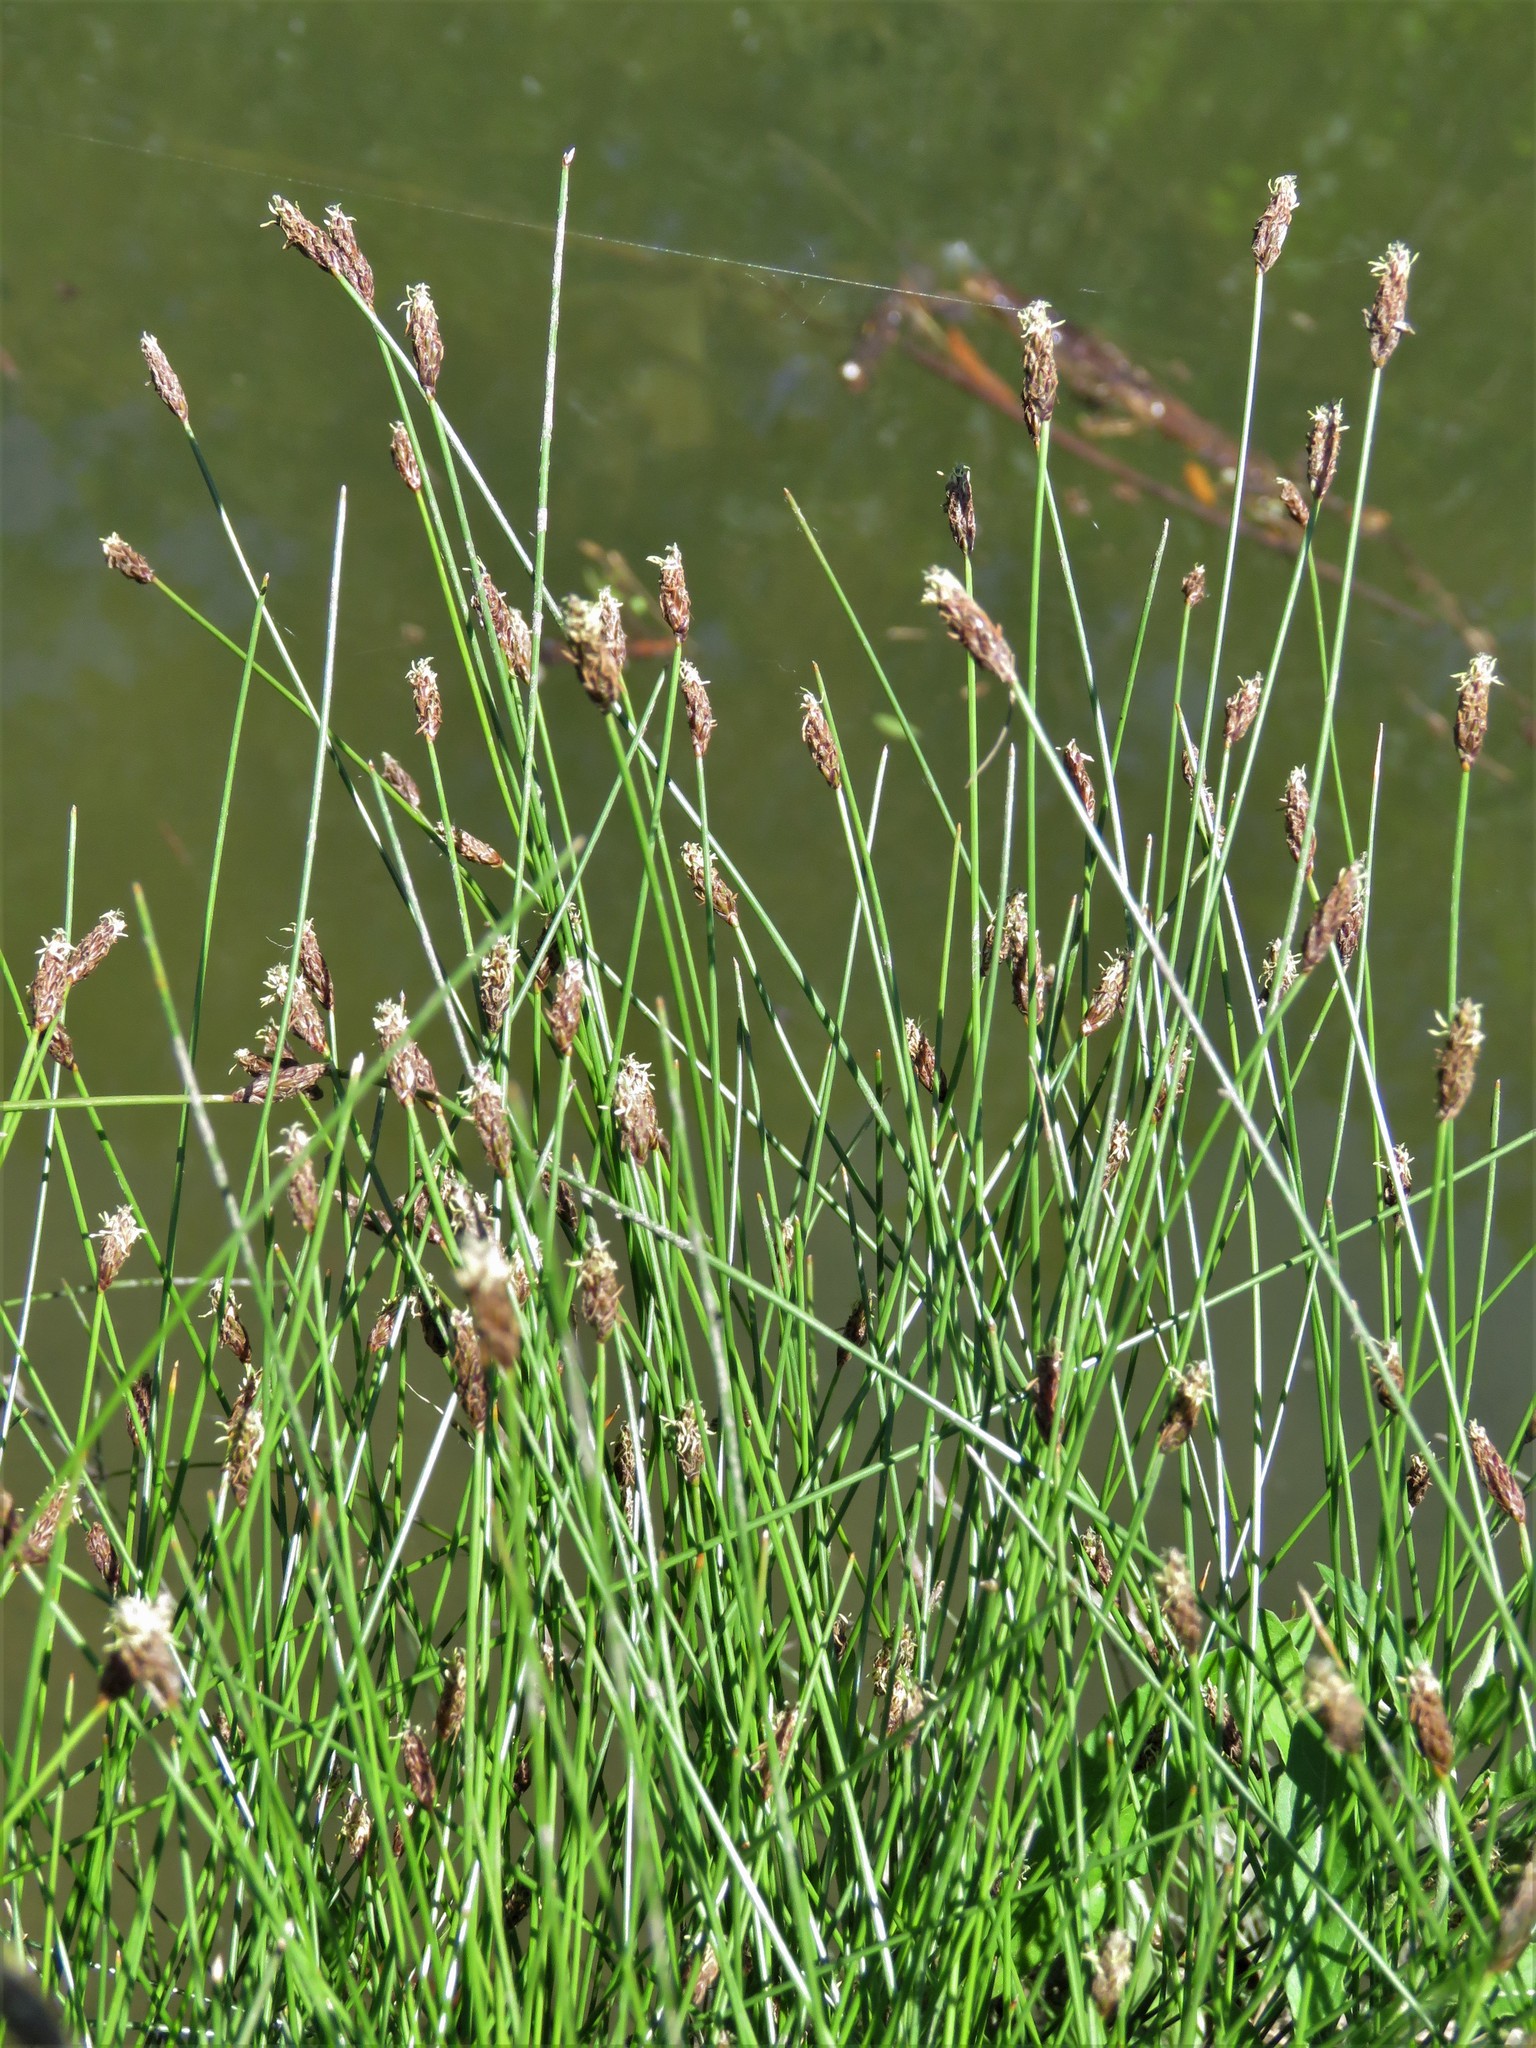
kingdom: Plantae
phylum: Tracheophyta
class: Liliopsida
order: Poales
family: Cyperaceae
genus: Eleocharis
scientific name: Eleocharis palustris
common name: Common spike-rush
